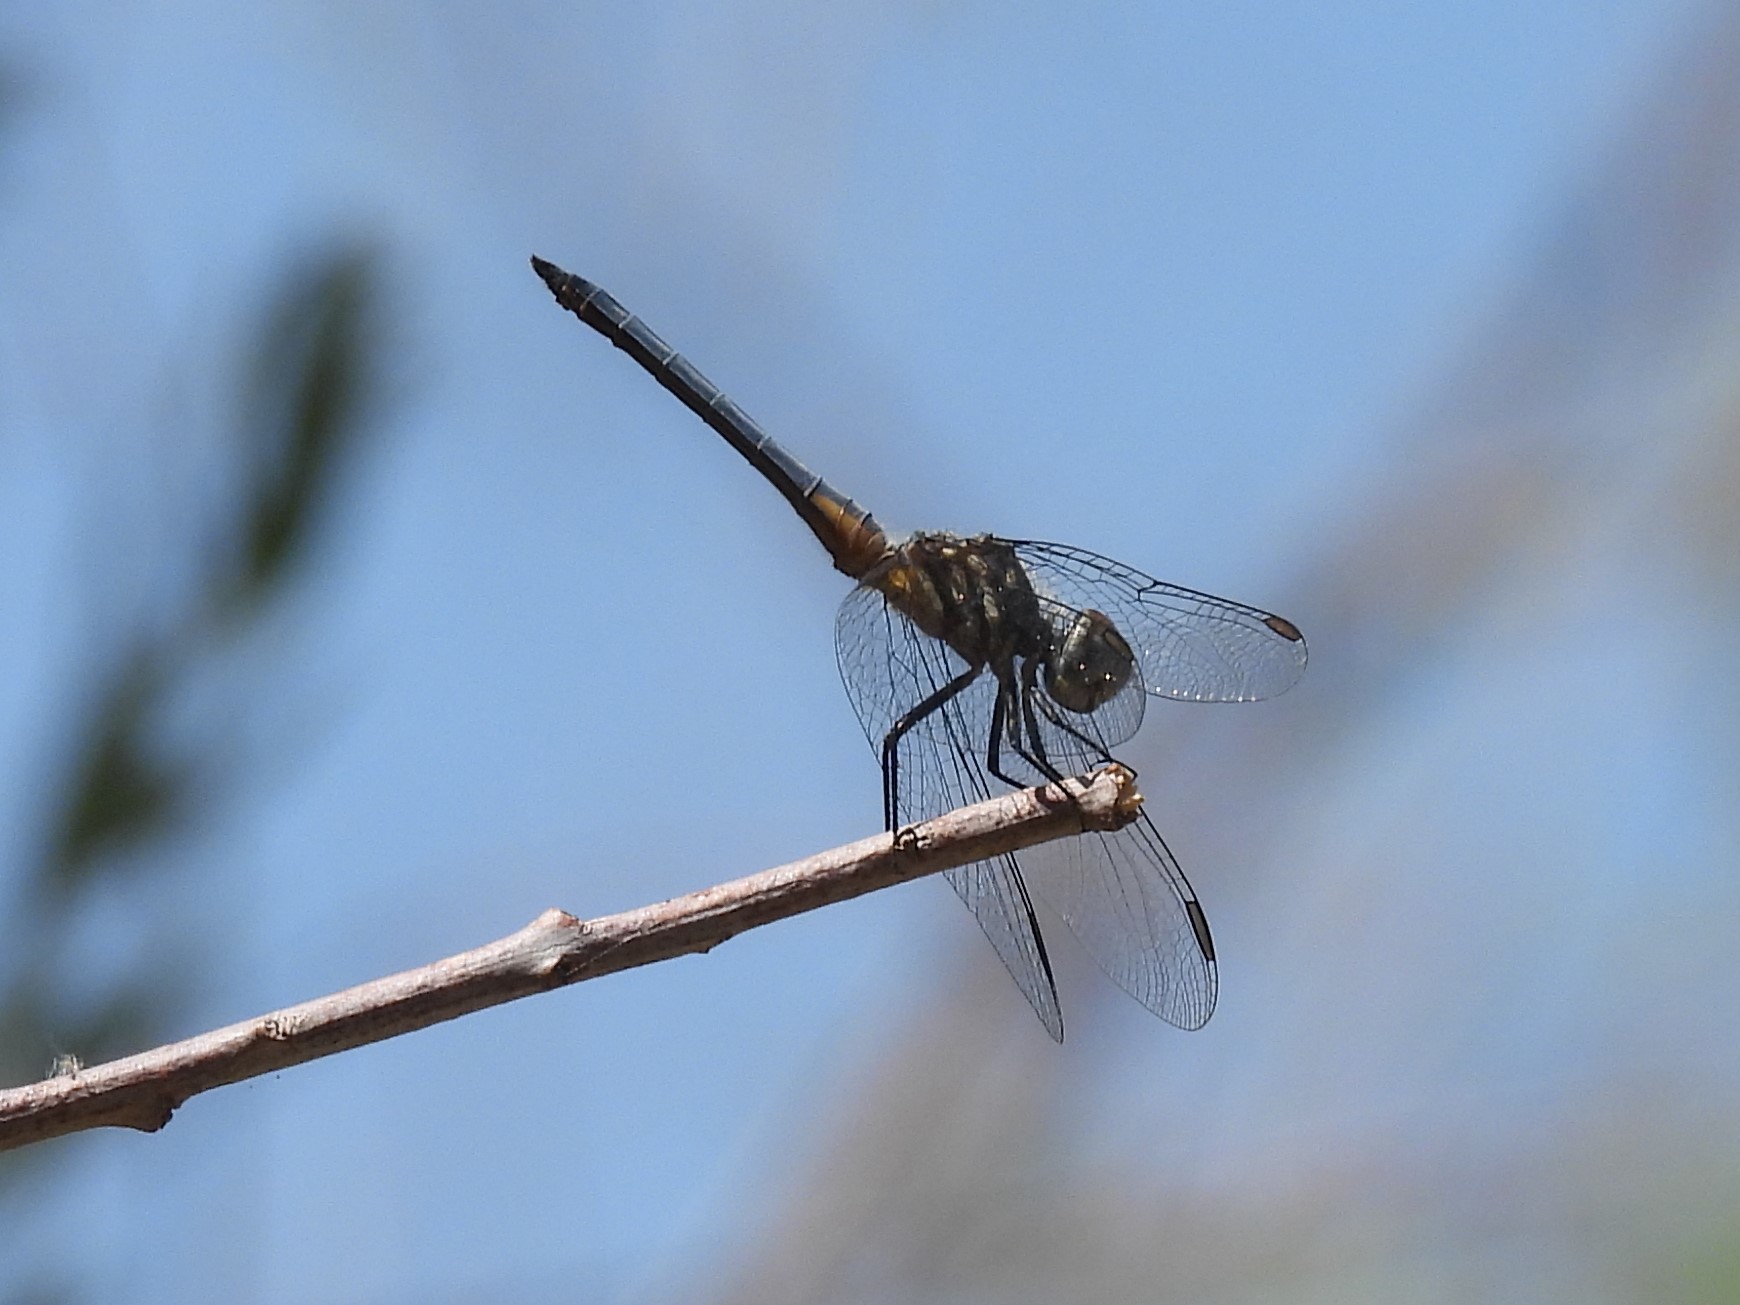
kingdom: Animalia
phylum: Arthropoda
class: Insecta
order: Odonata
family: Libellulidae
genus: Pachydiplax
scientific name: Pachydiplax longipennis
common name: Blue dasher
